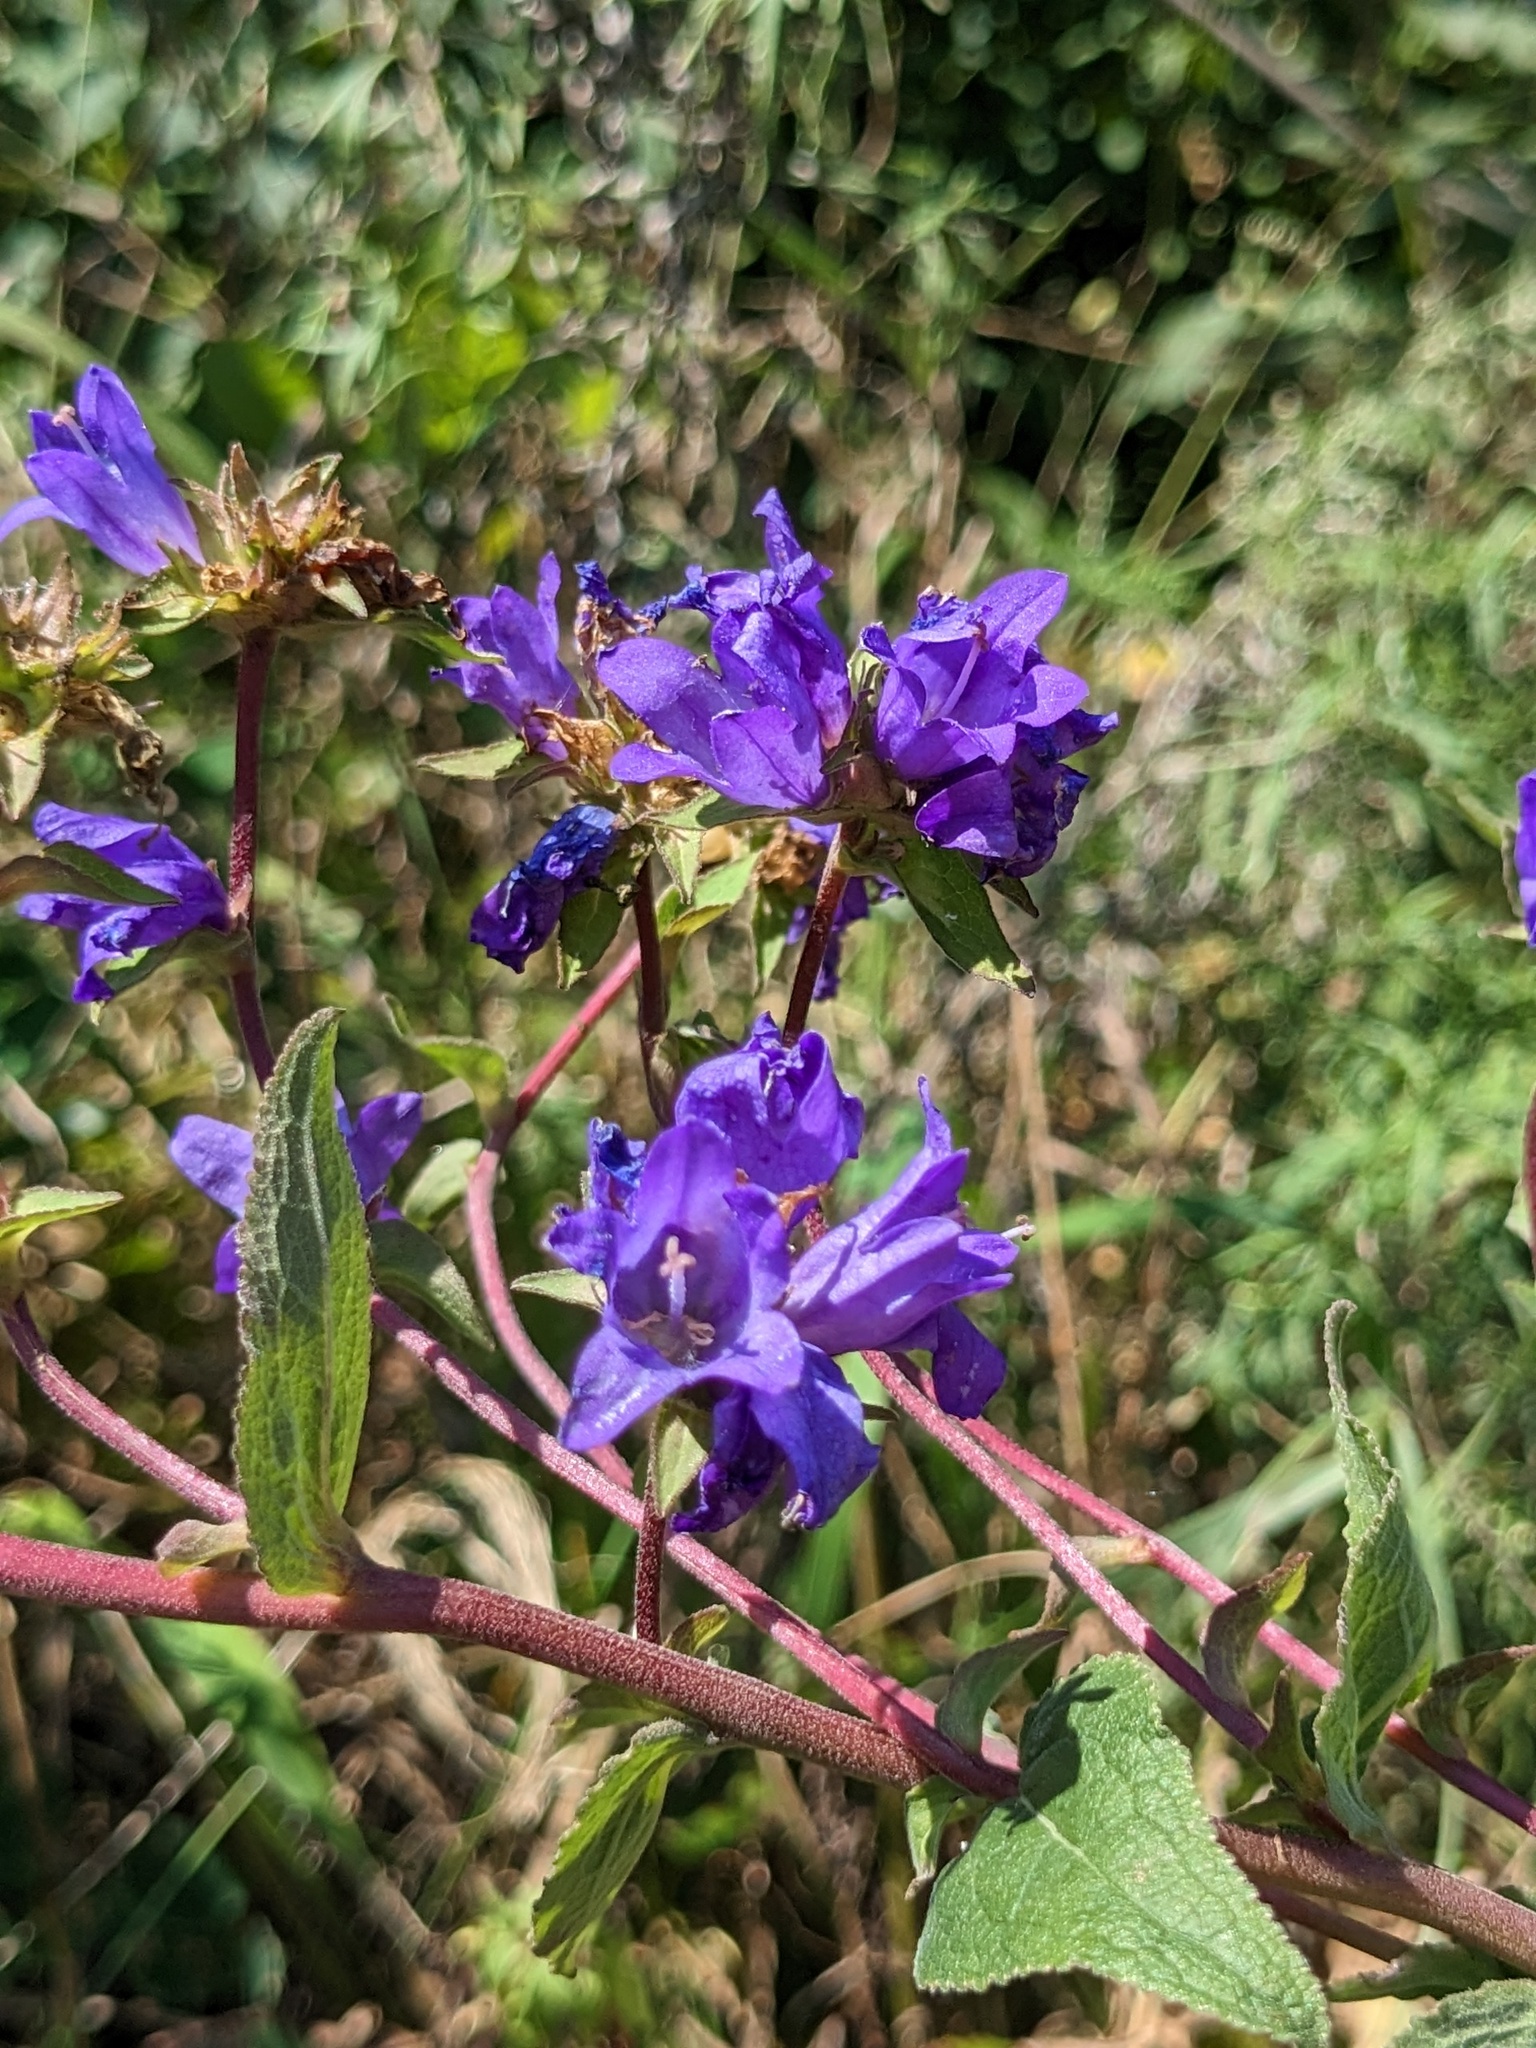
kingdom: Plantae
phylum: Tracheophyta
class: Magnoliopsida
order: Asterales
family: Campanulaceae
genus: Campanula
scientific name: Campanula glomerata
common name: Clustered bellflower
